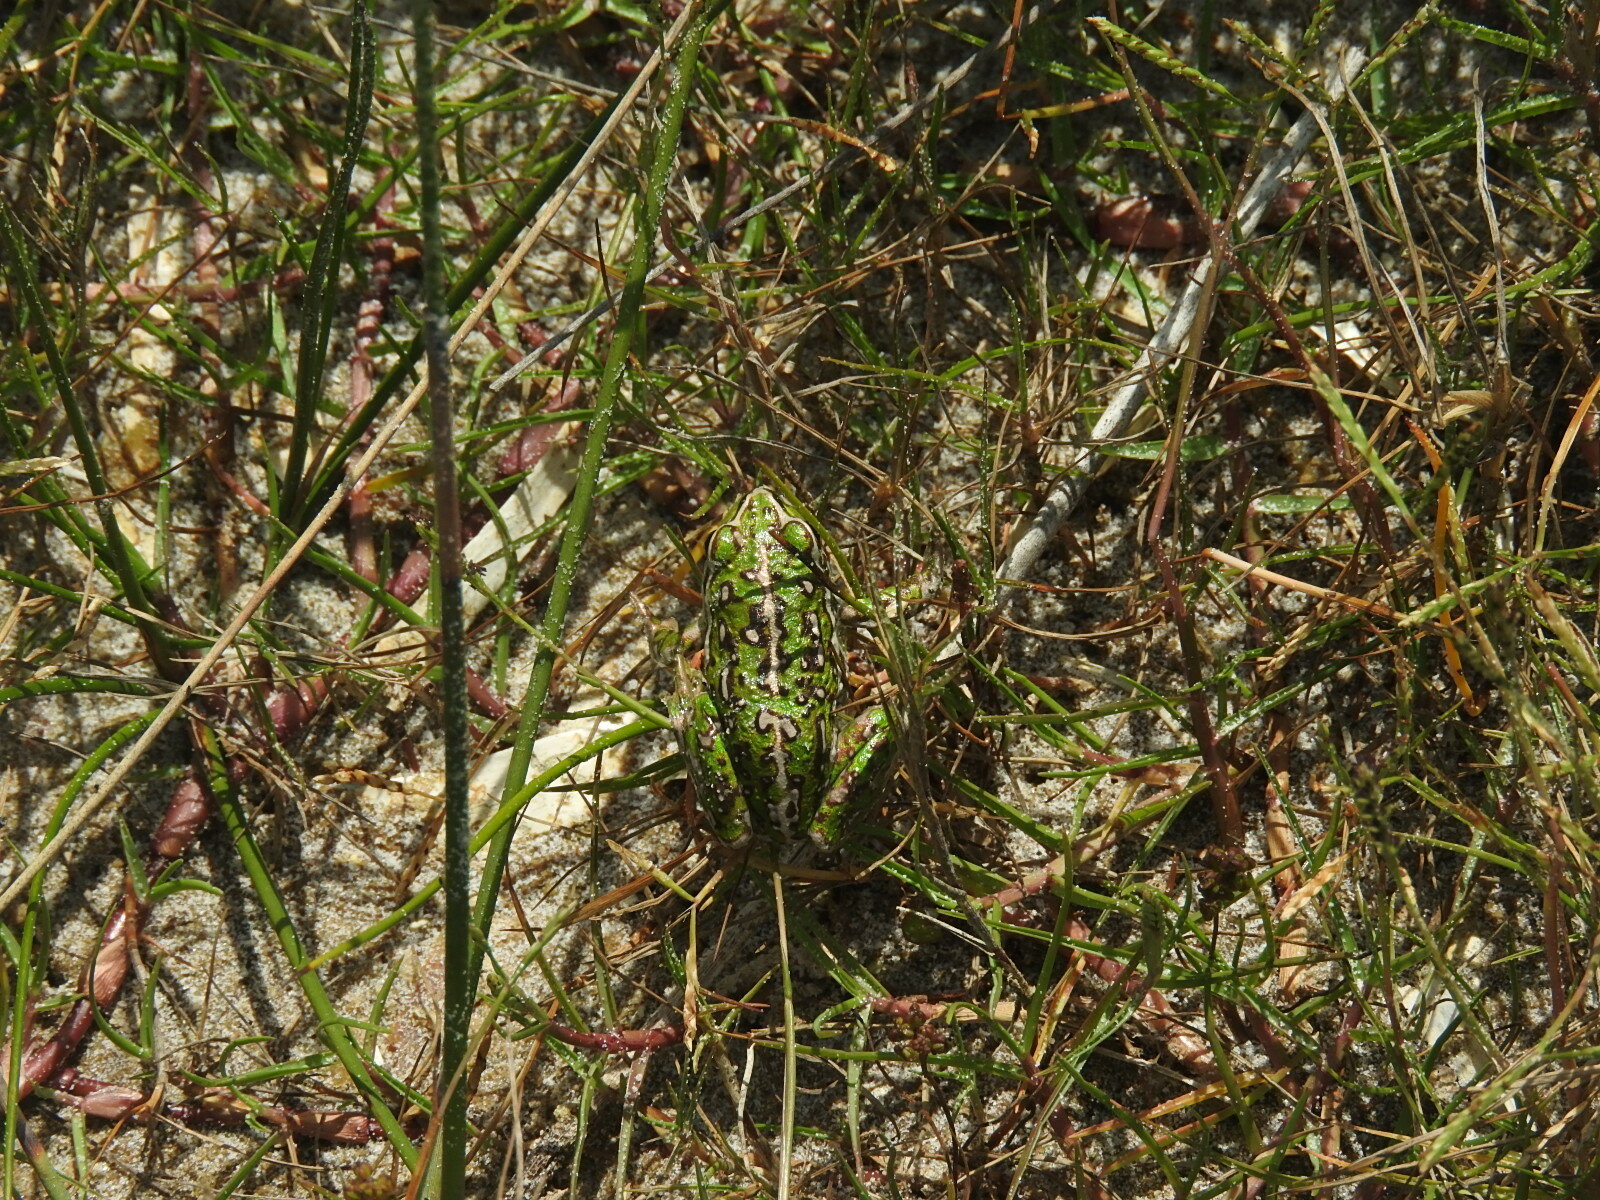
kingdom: Animalia
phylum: Chordata
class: Amphibia
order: Anura
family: Pelodryadidae
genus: Ranoidea
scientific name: Ranoidea moorei
